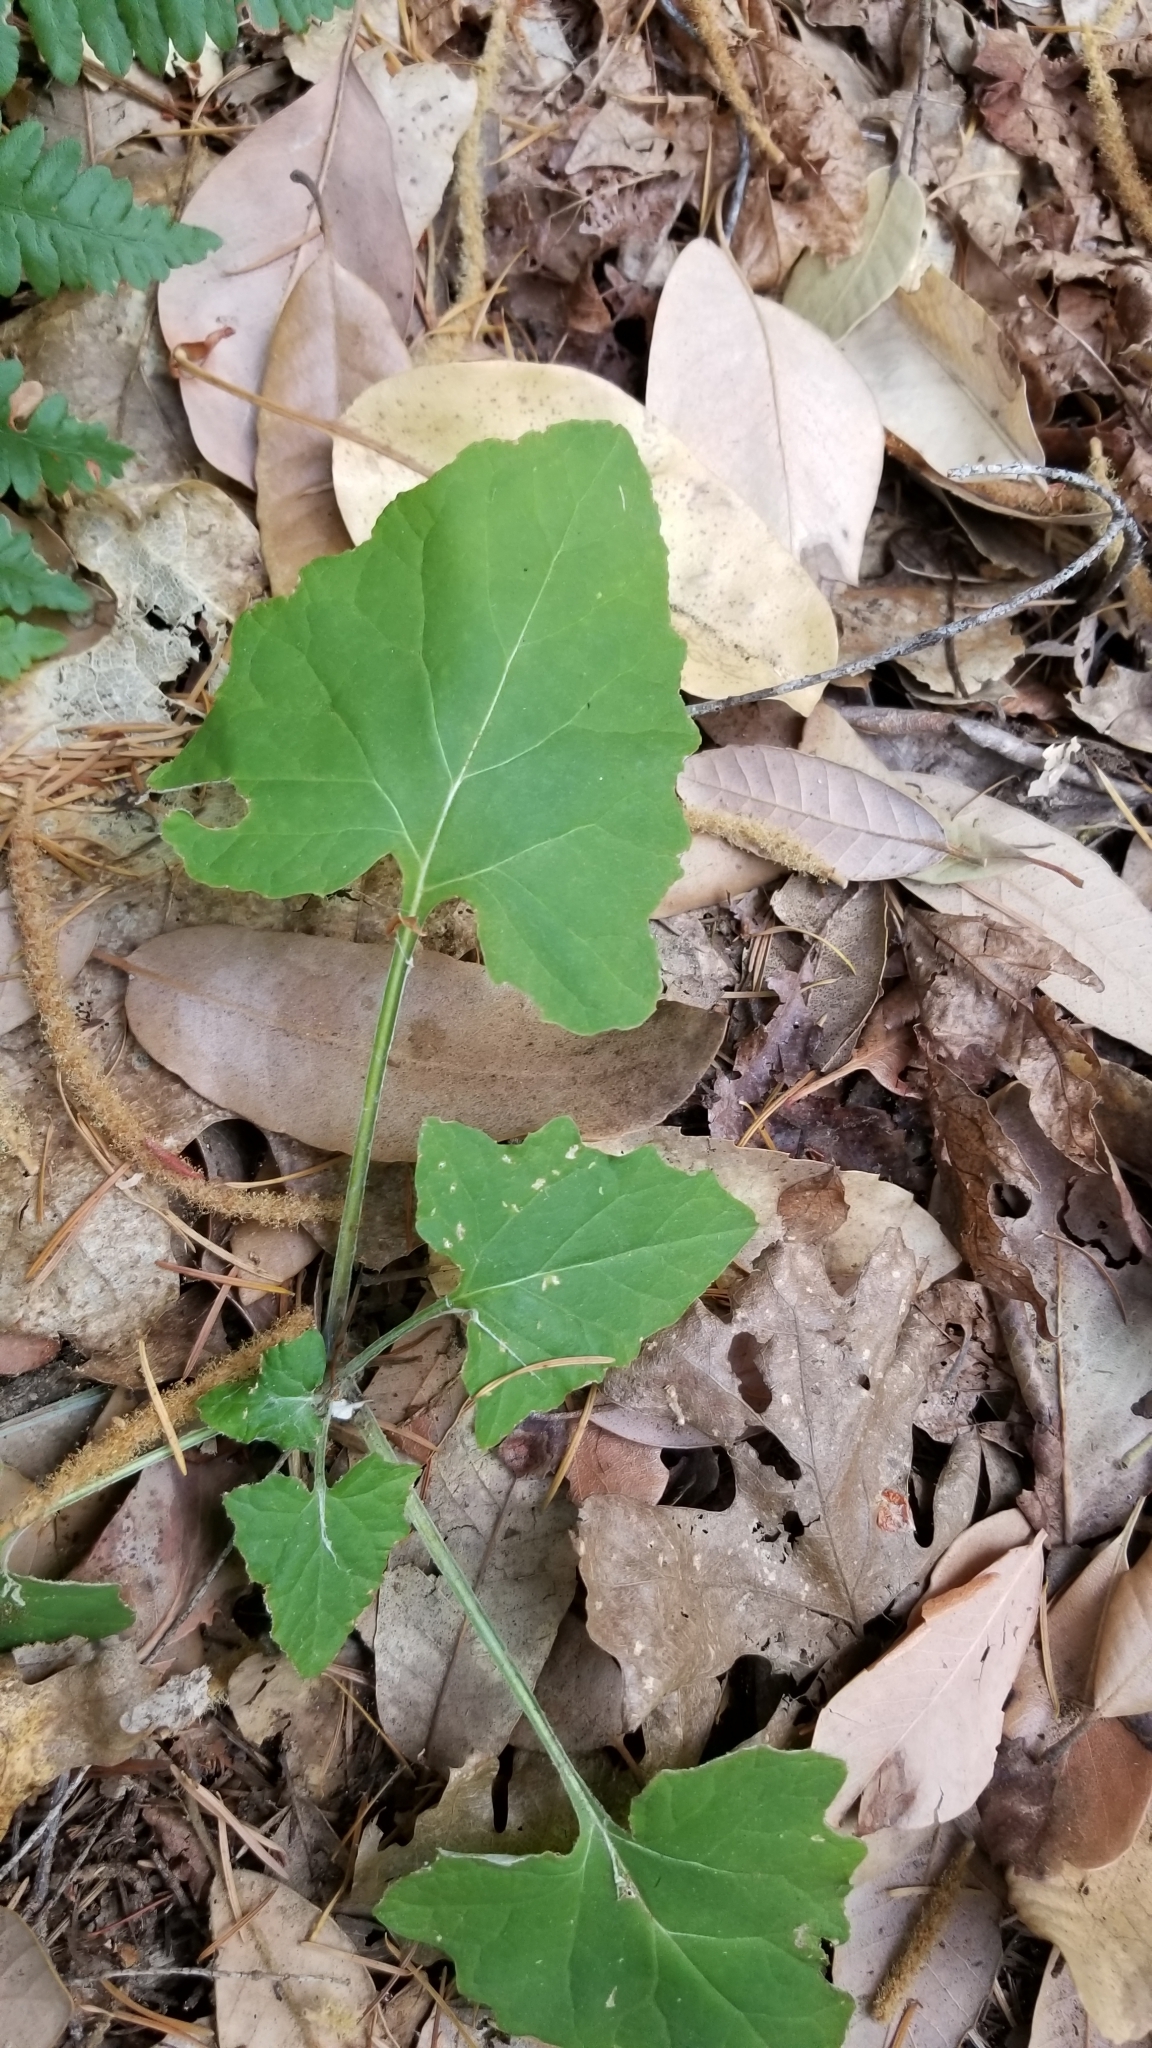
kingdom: Plantae
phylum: Tracheophyta
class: Magnoliopsida
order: Asterales
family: Asteraceae
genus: Adenocaulon
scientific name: Adenocaulon bicolor
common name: Trailplant
